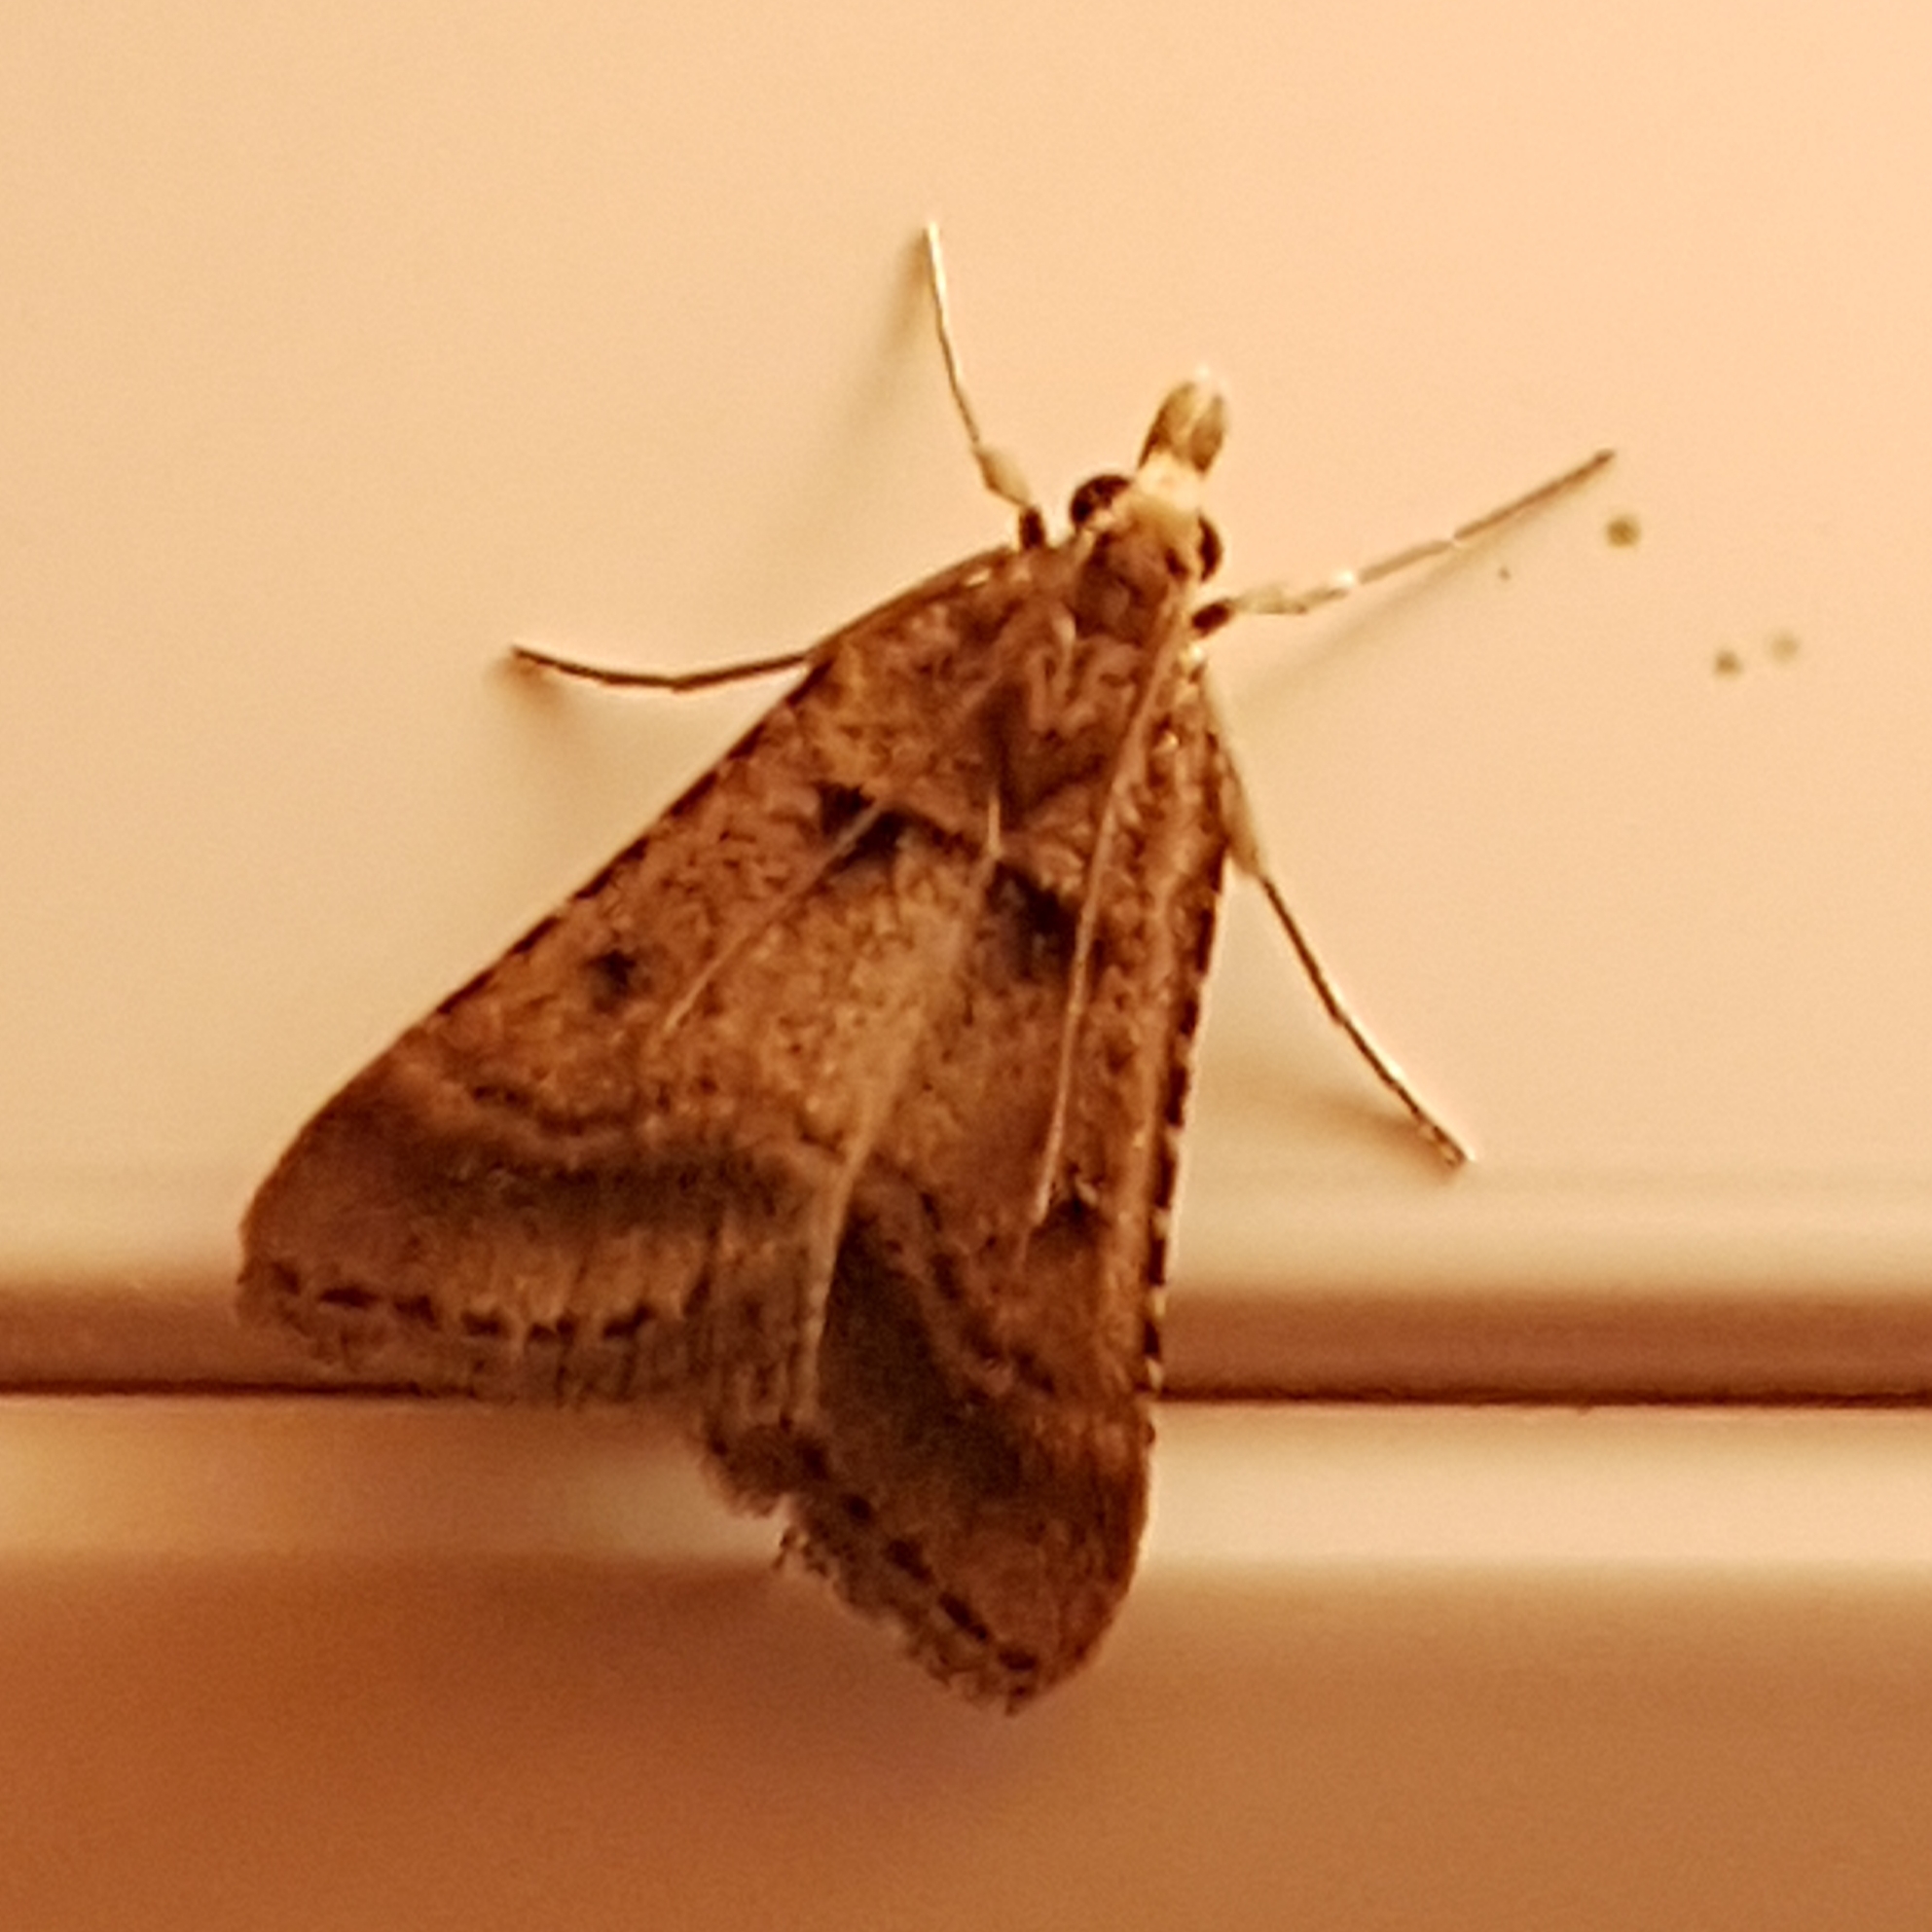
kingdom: Animalia
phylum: Arthropoda
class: Insecta
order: Lepidoptera
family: Pyralidae
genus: Stemmatophora
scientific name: Stemmatophora brunnealis
